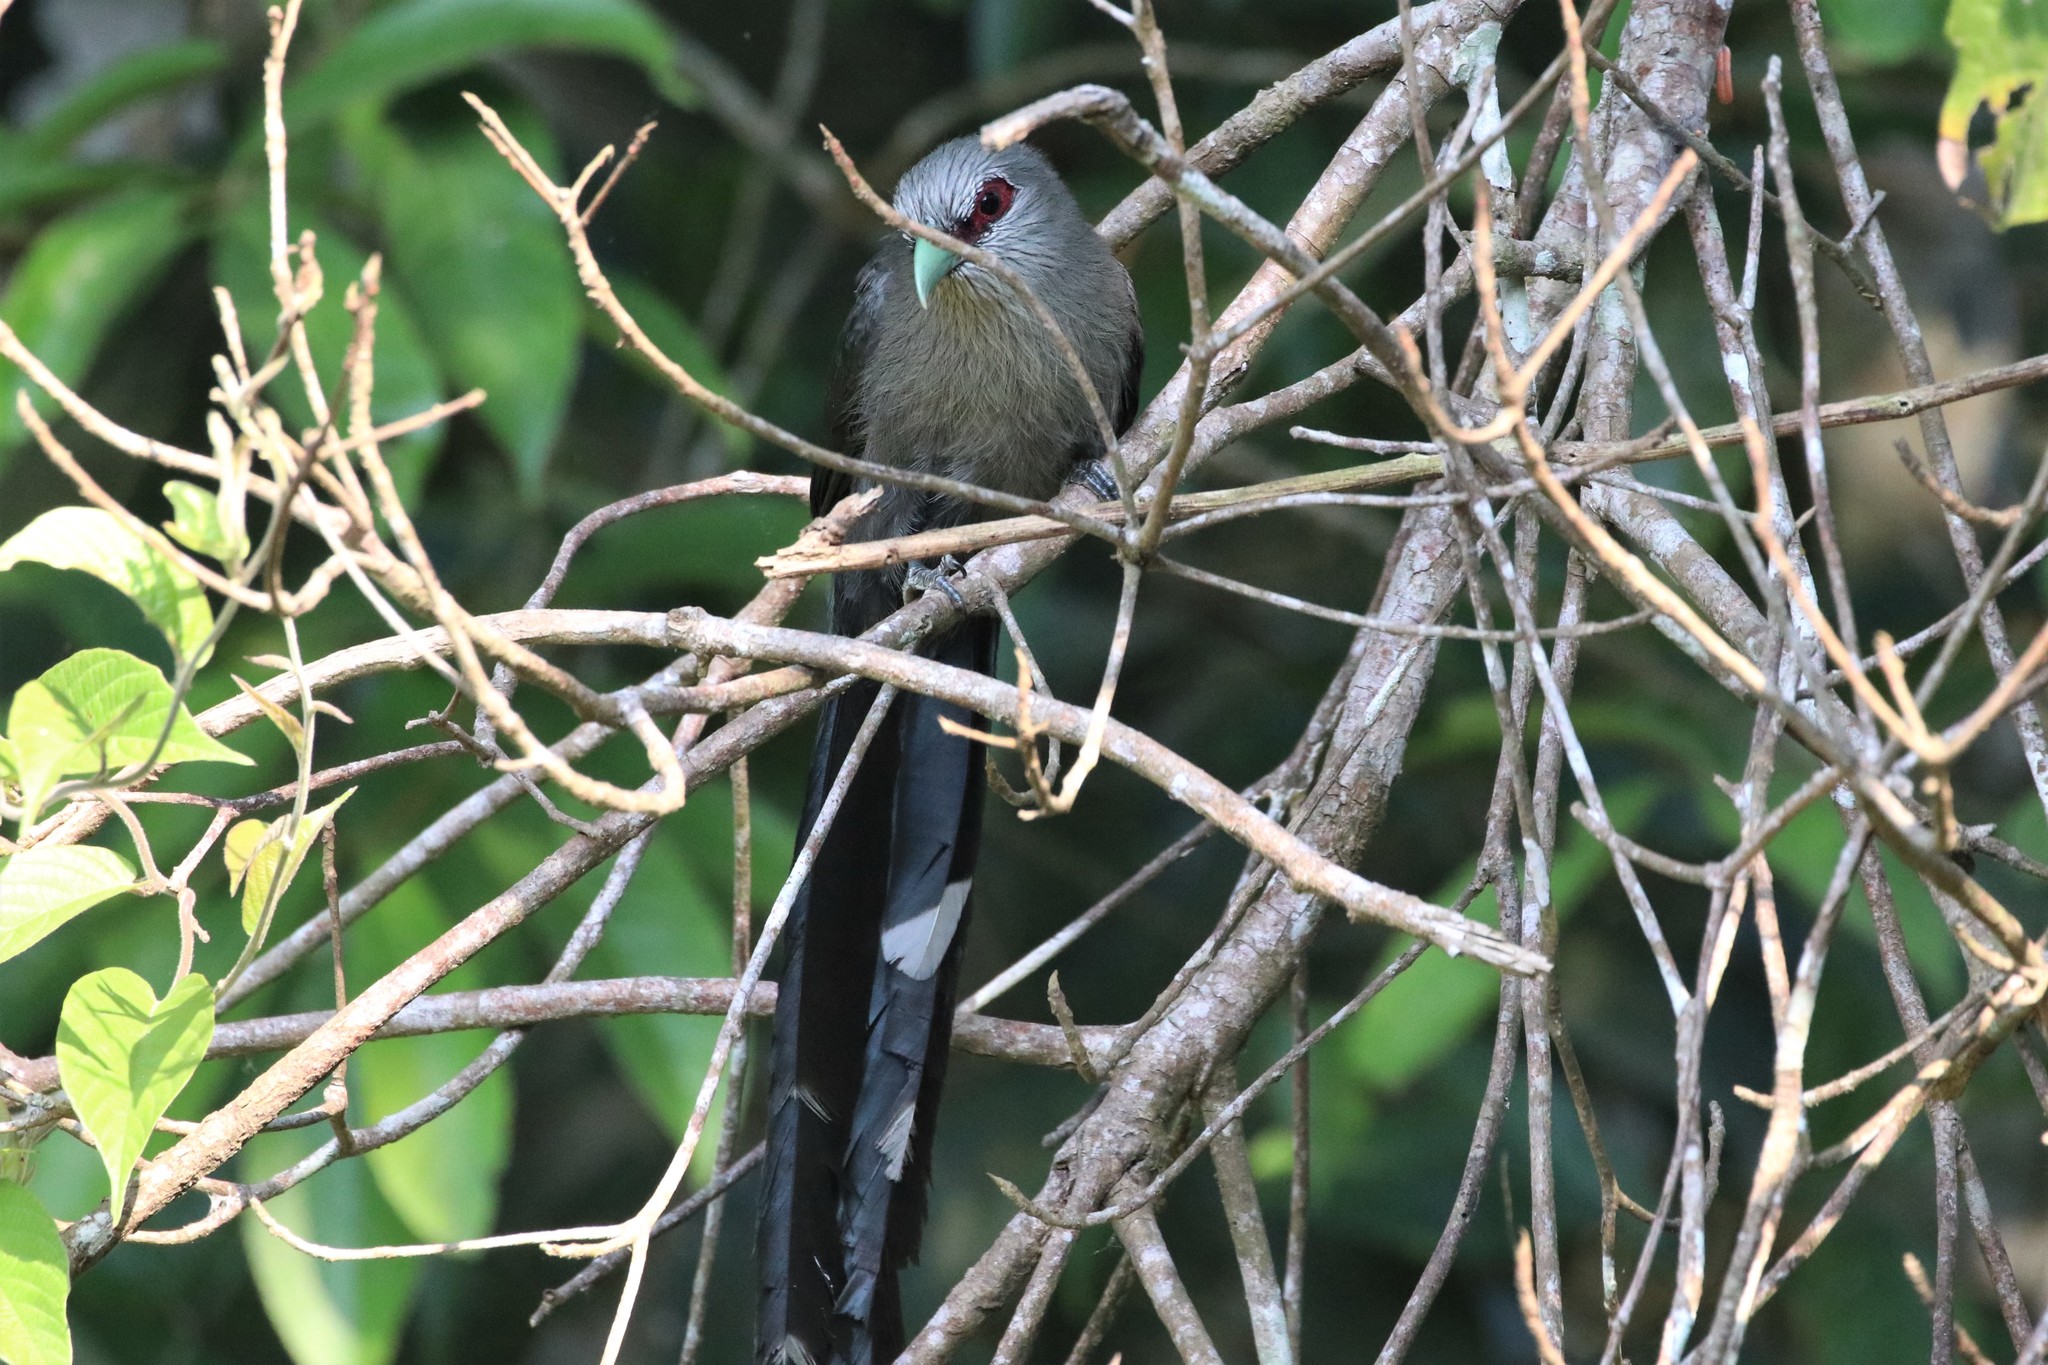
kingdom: Animalia
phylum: Chordata
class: Aves
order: Cuculiformes
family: Cuculidae
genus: Rhopodytes
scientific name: Rhopodytes tristis
